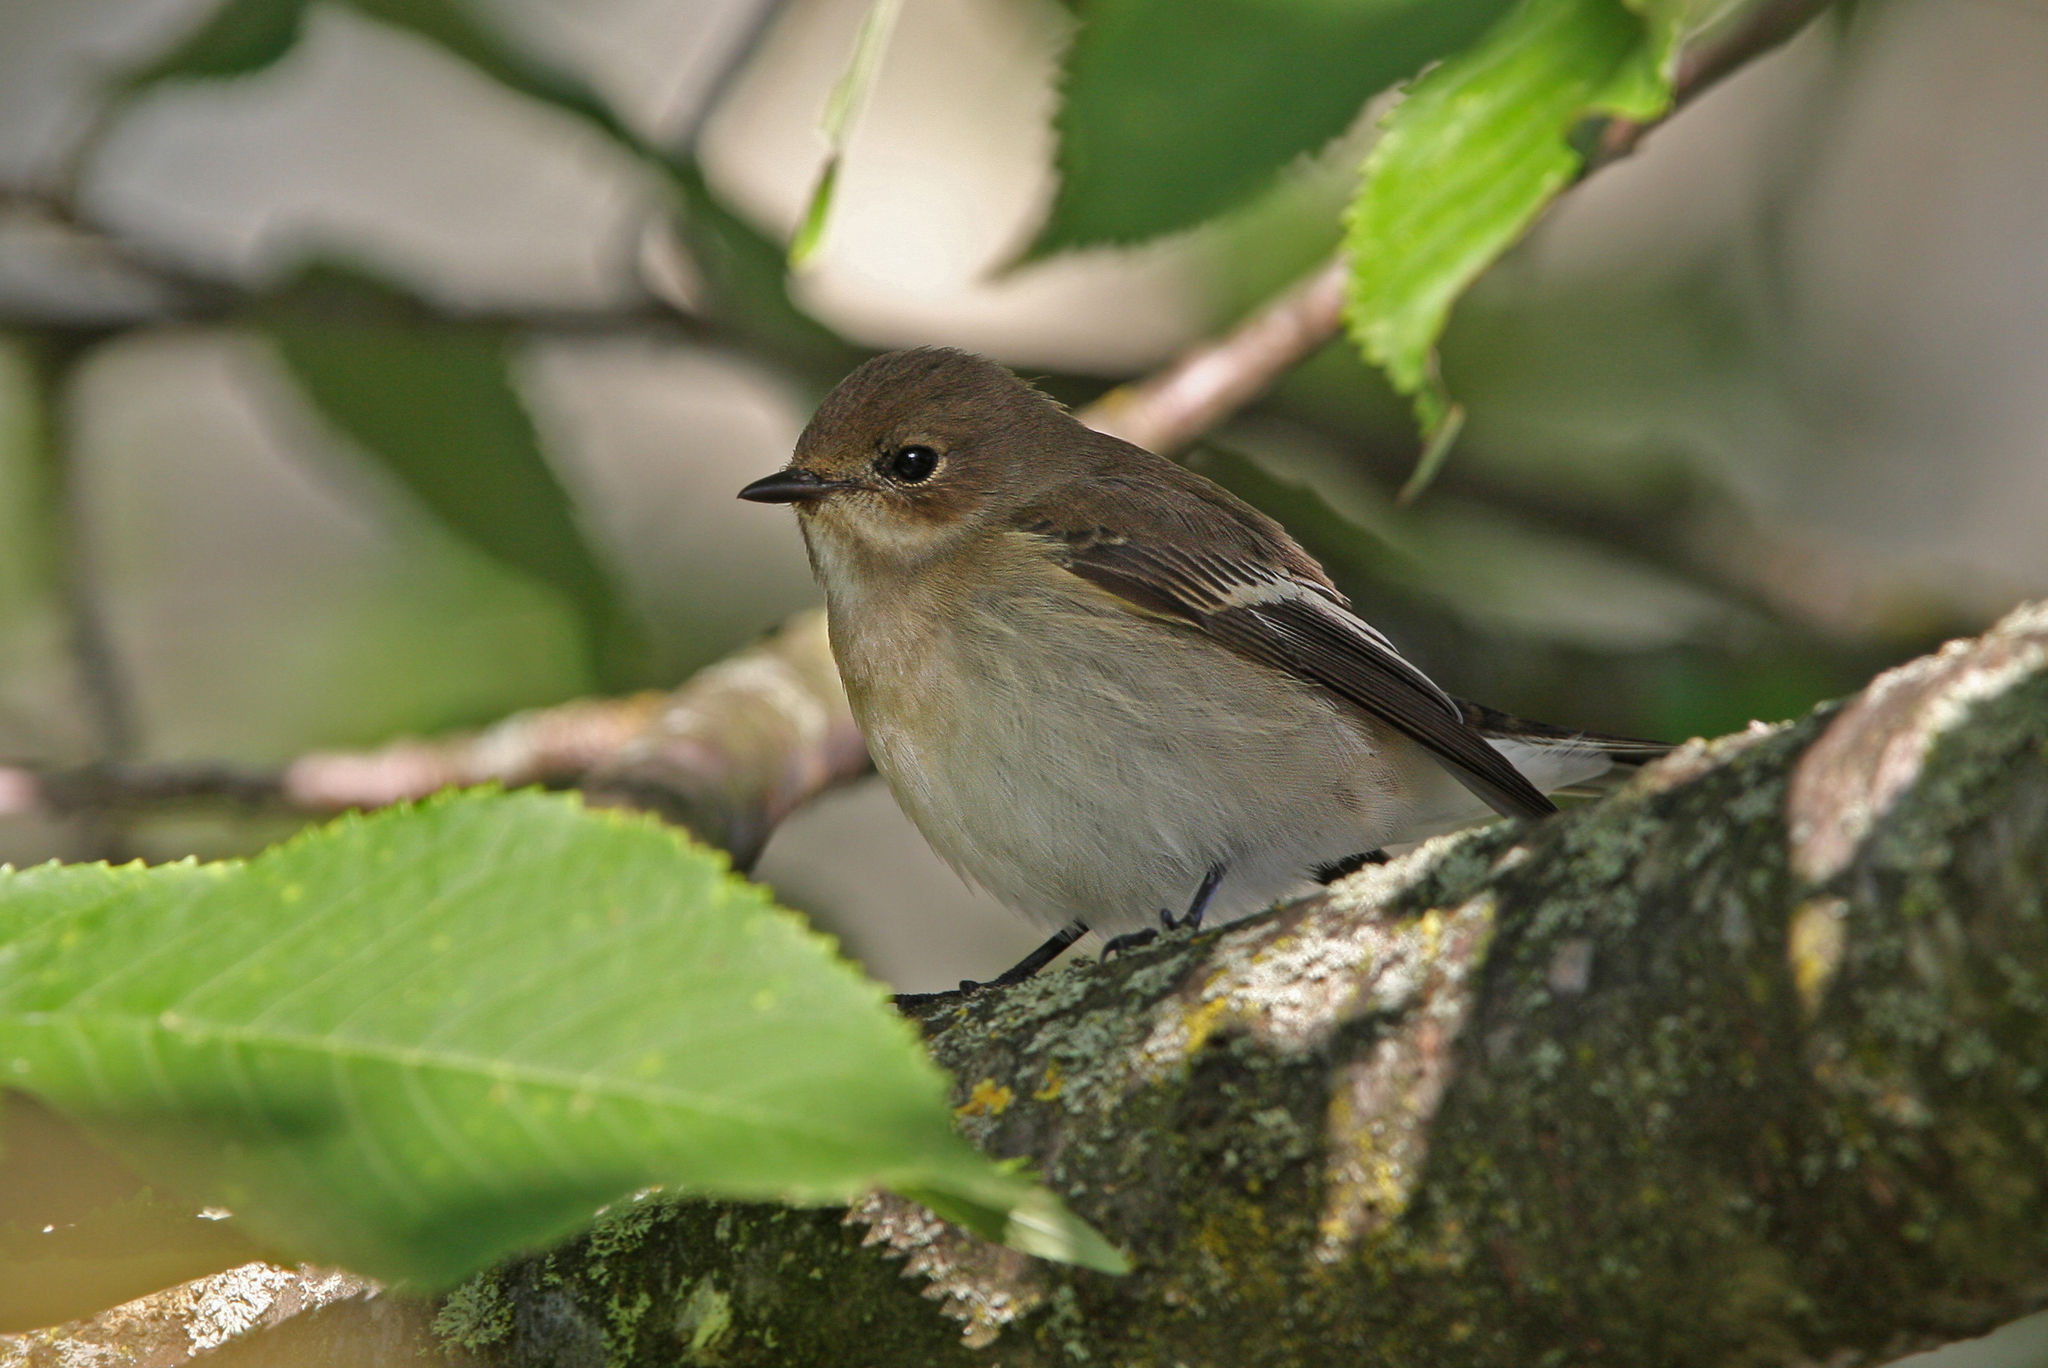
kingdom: Animalia
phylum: Chordata
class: Aves
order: Passeriformes
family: Muscicapidae
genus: Ficedula
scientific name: Ficedula hypoleuca
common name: European pied flycatcher
